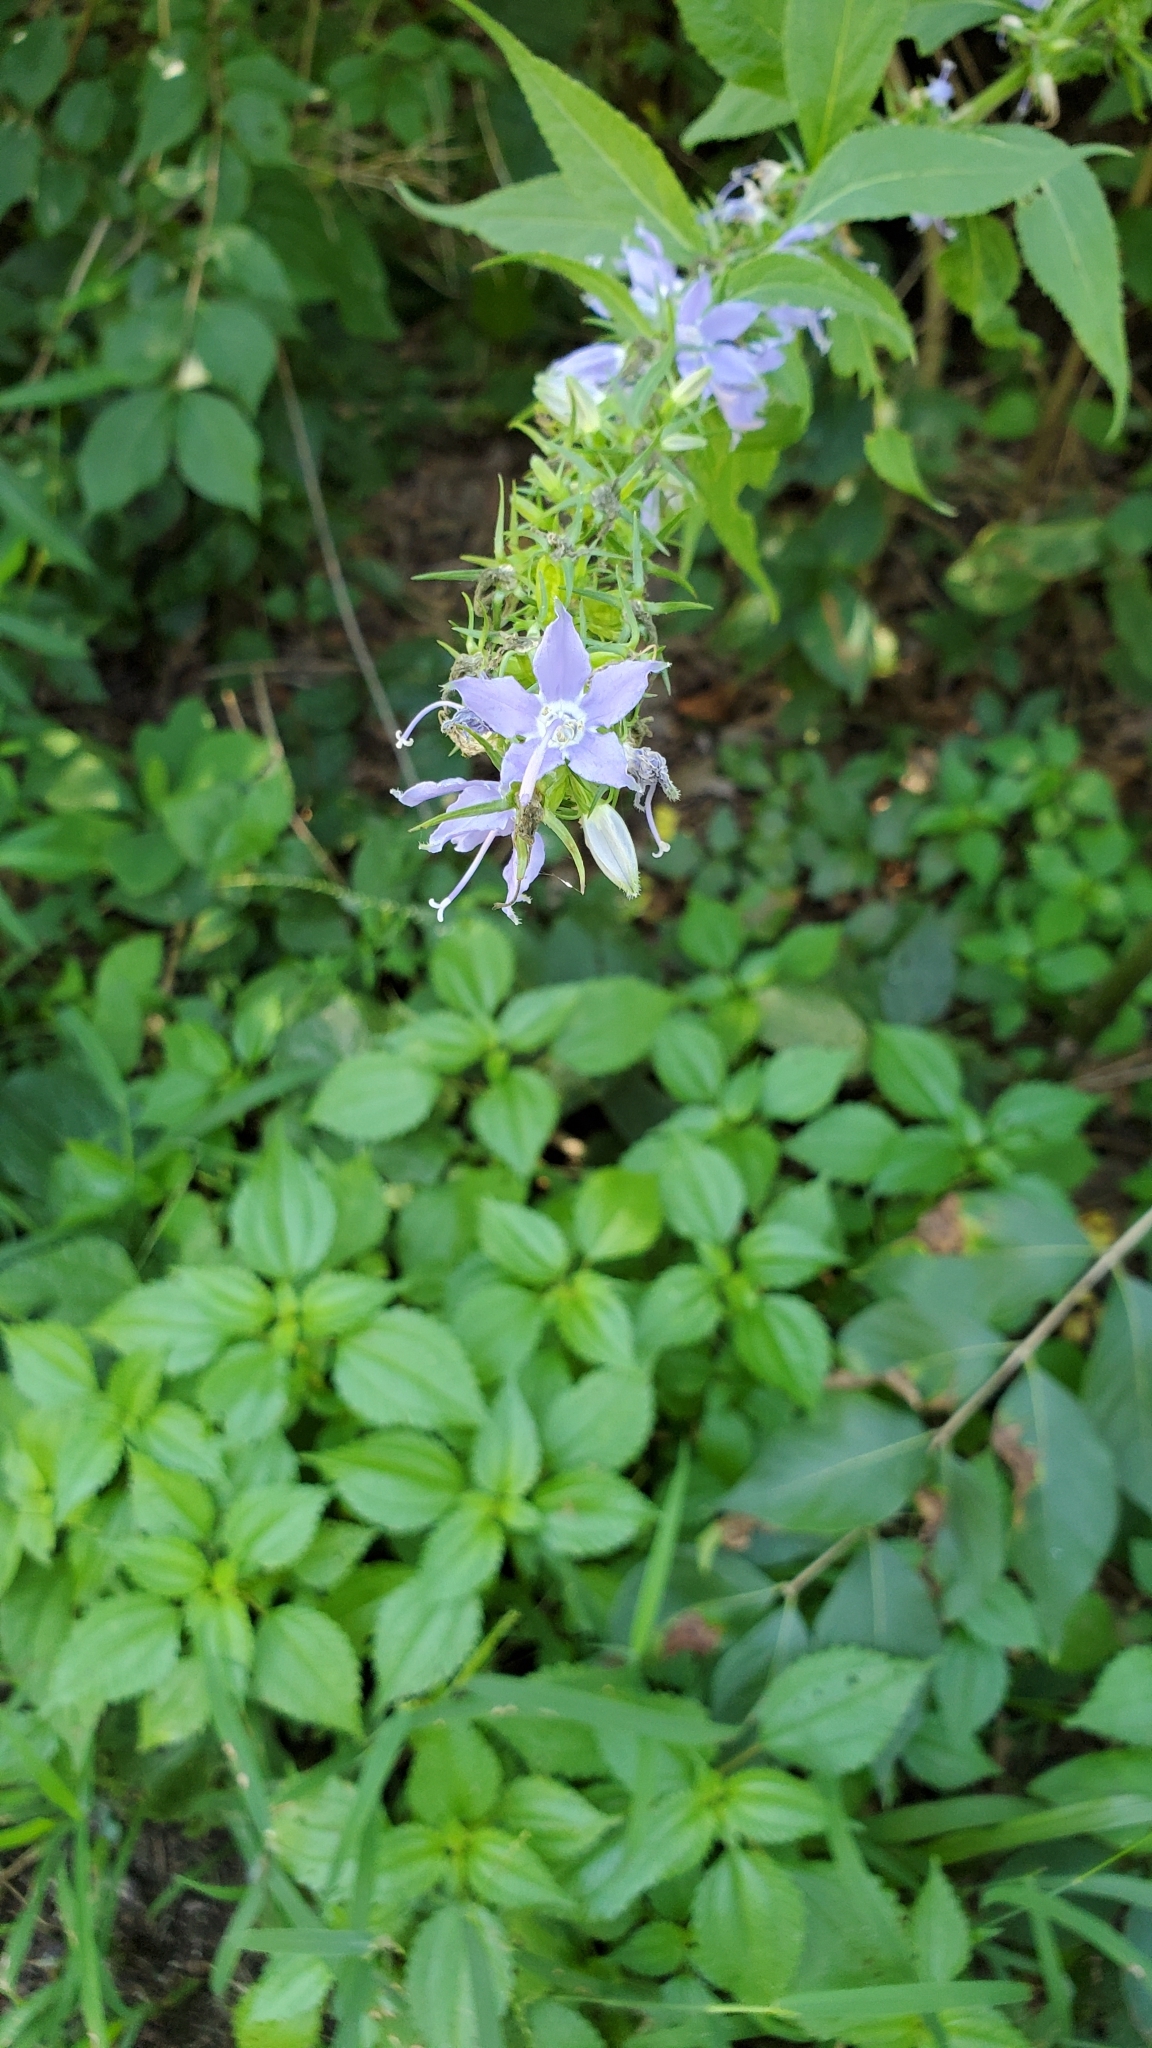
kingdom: Plantae
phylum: Tracheophyta
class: Magnoliopsida
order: Asterales
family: Campanulaceae
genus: Campanulastrum
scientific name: Campanulastrum americanum
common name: American bellflower
